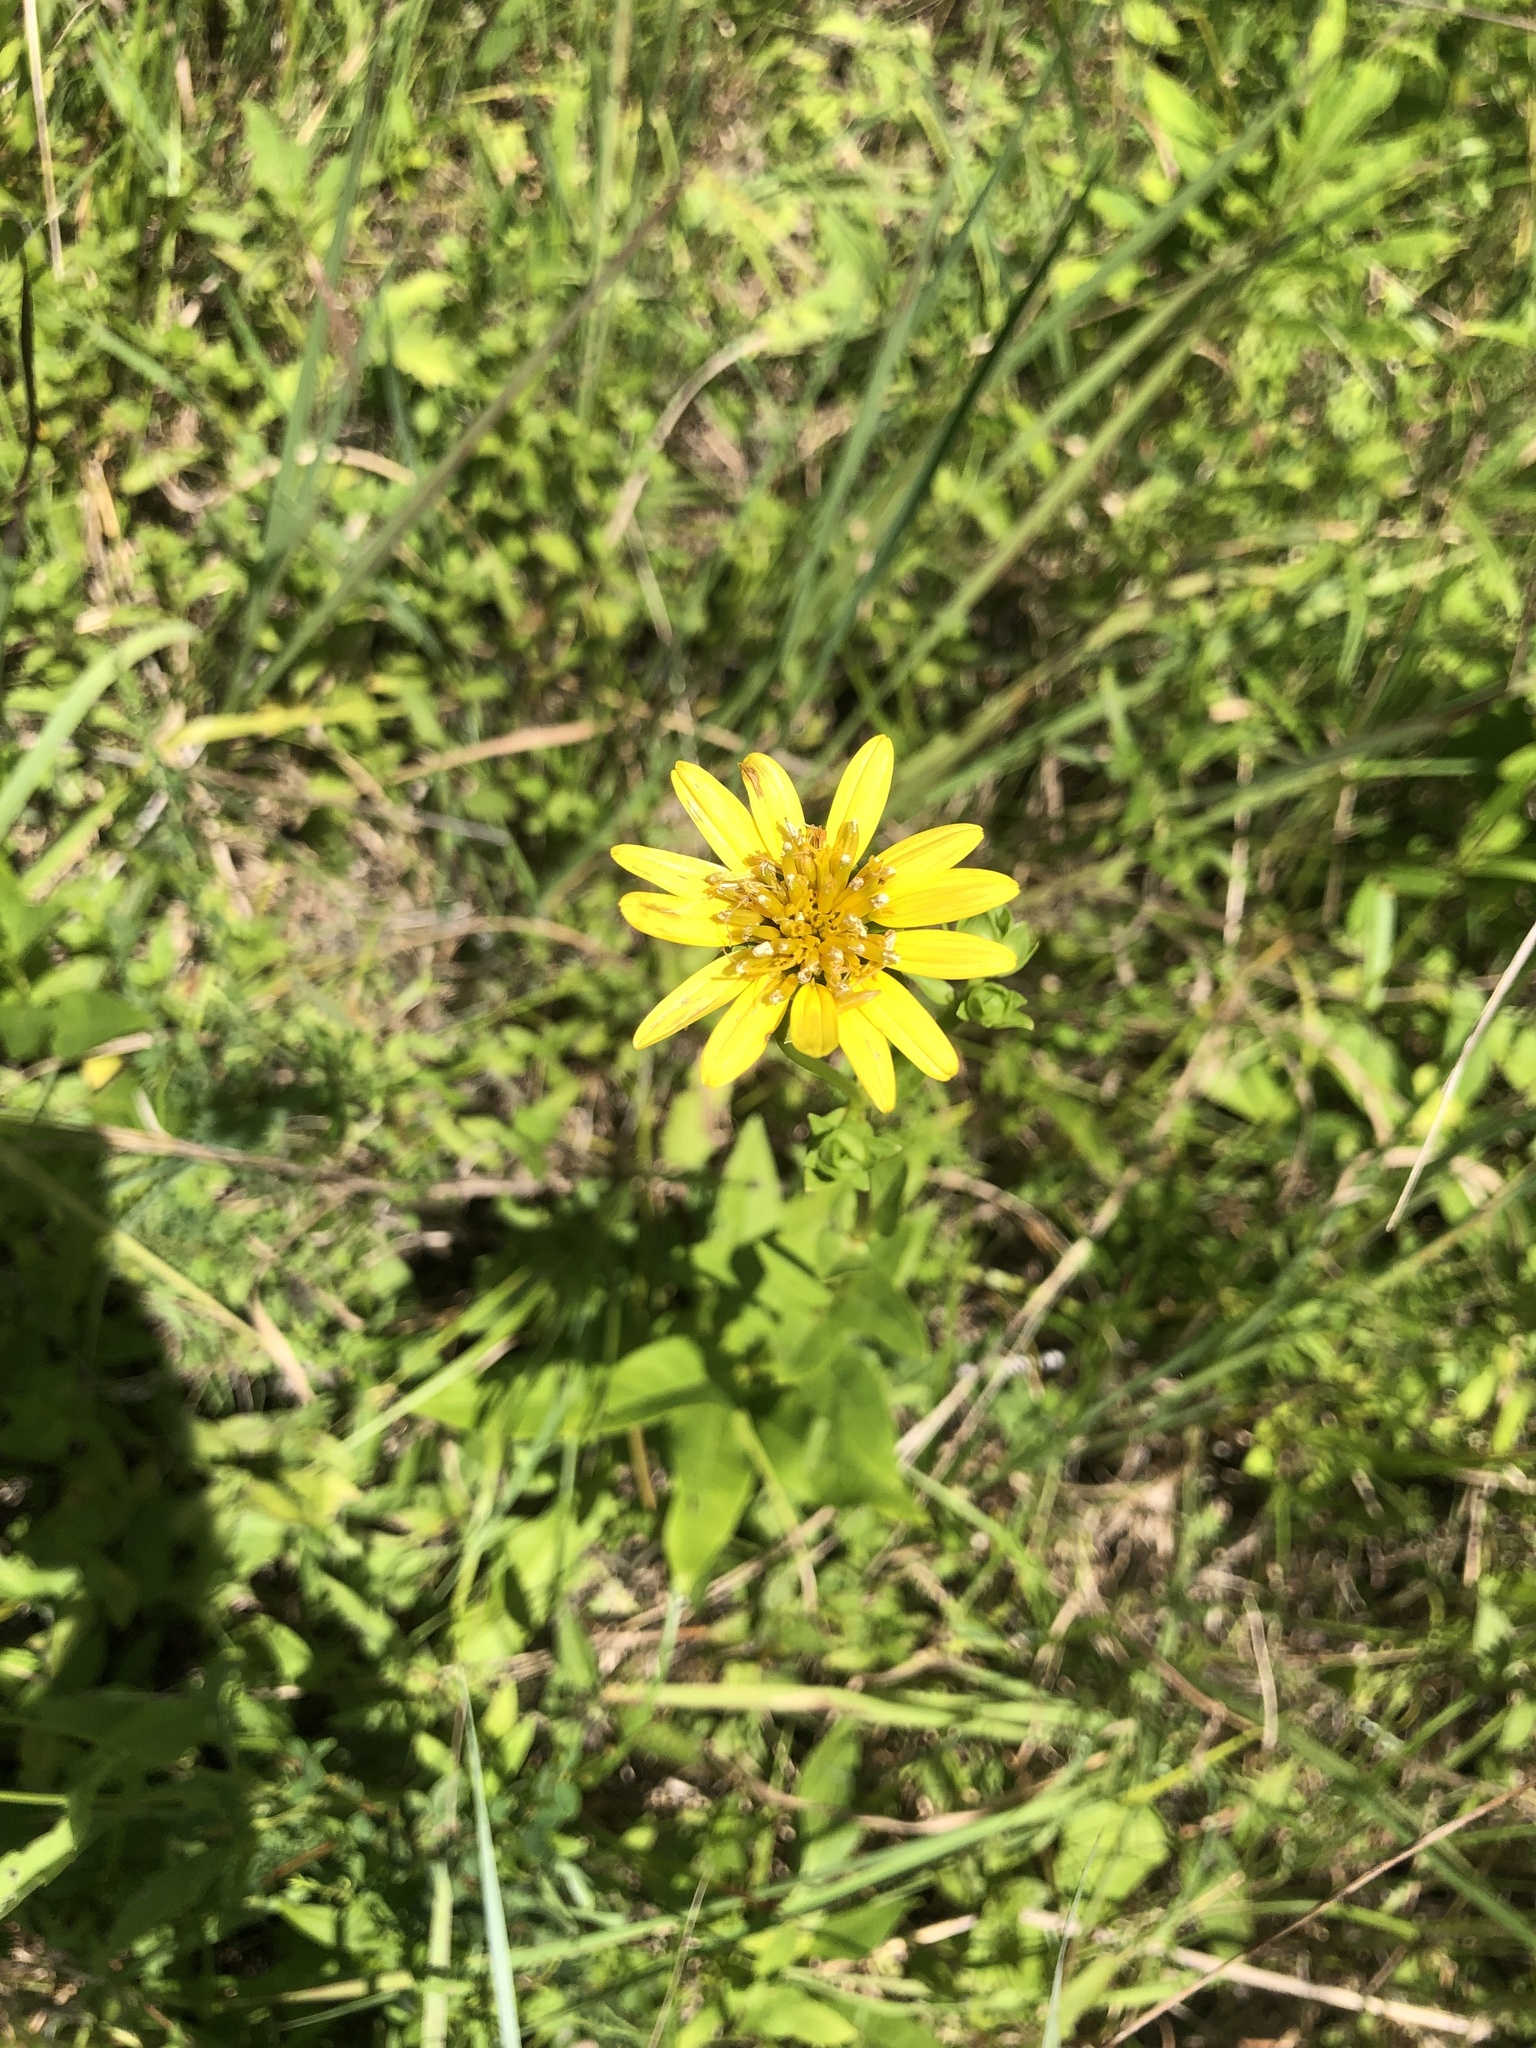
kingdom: Plantae
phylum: Tracheophyta
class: Magnoliopsida
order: Asterales
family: Asteraceae
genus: Silphium
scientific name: Silphium confertifolium
